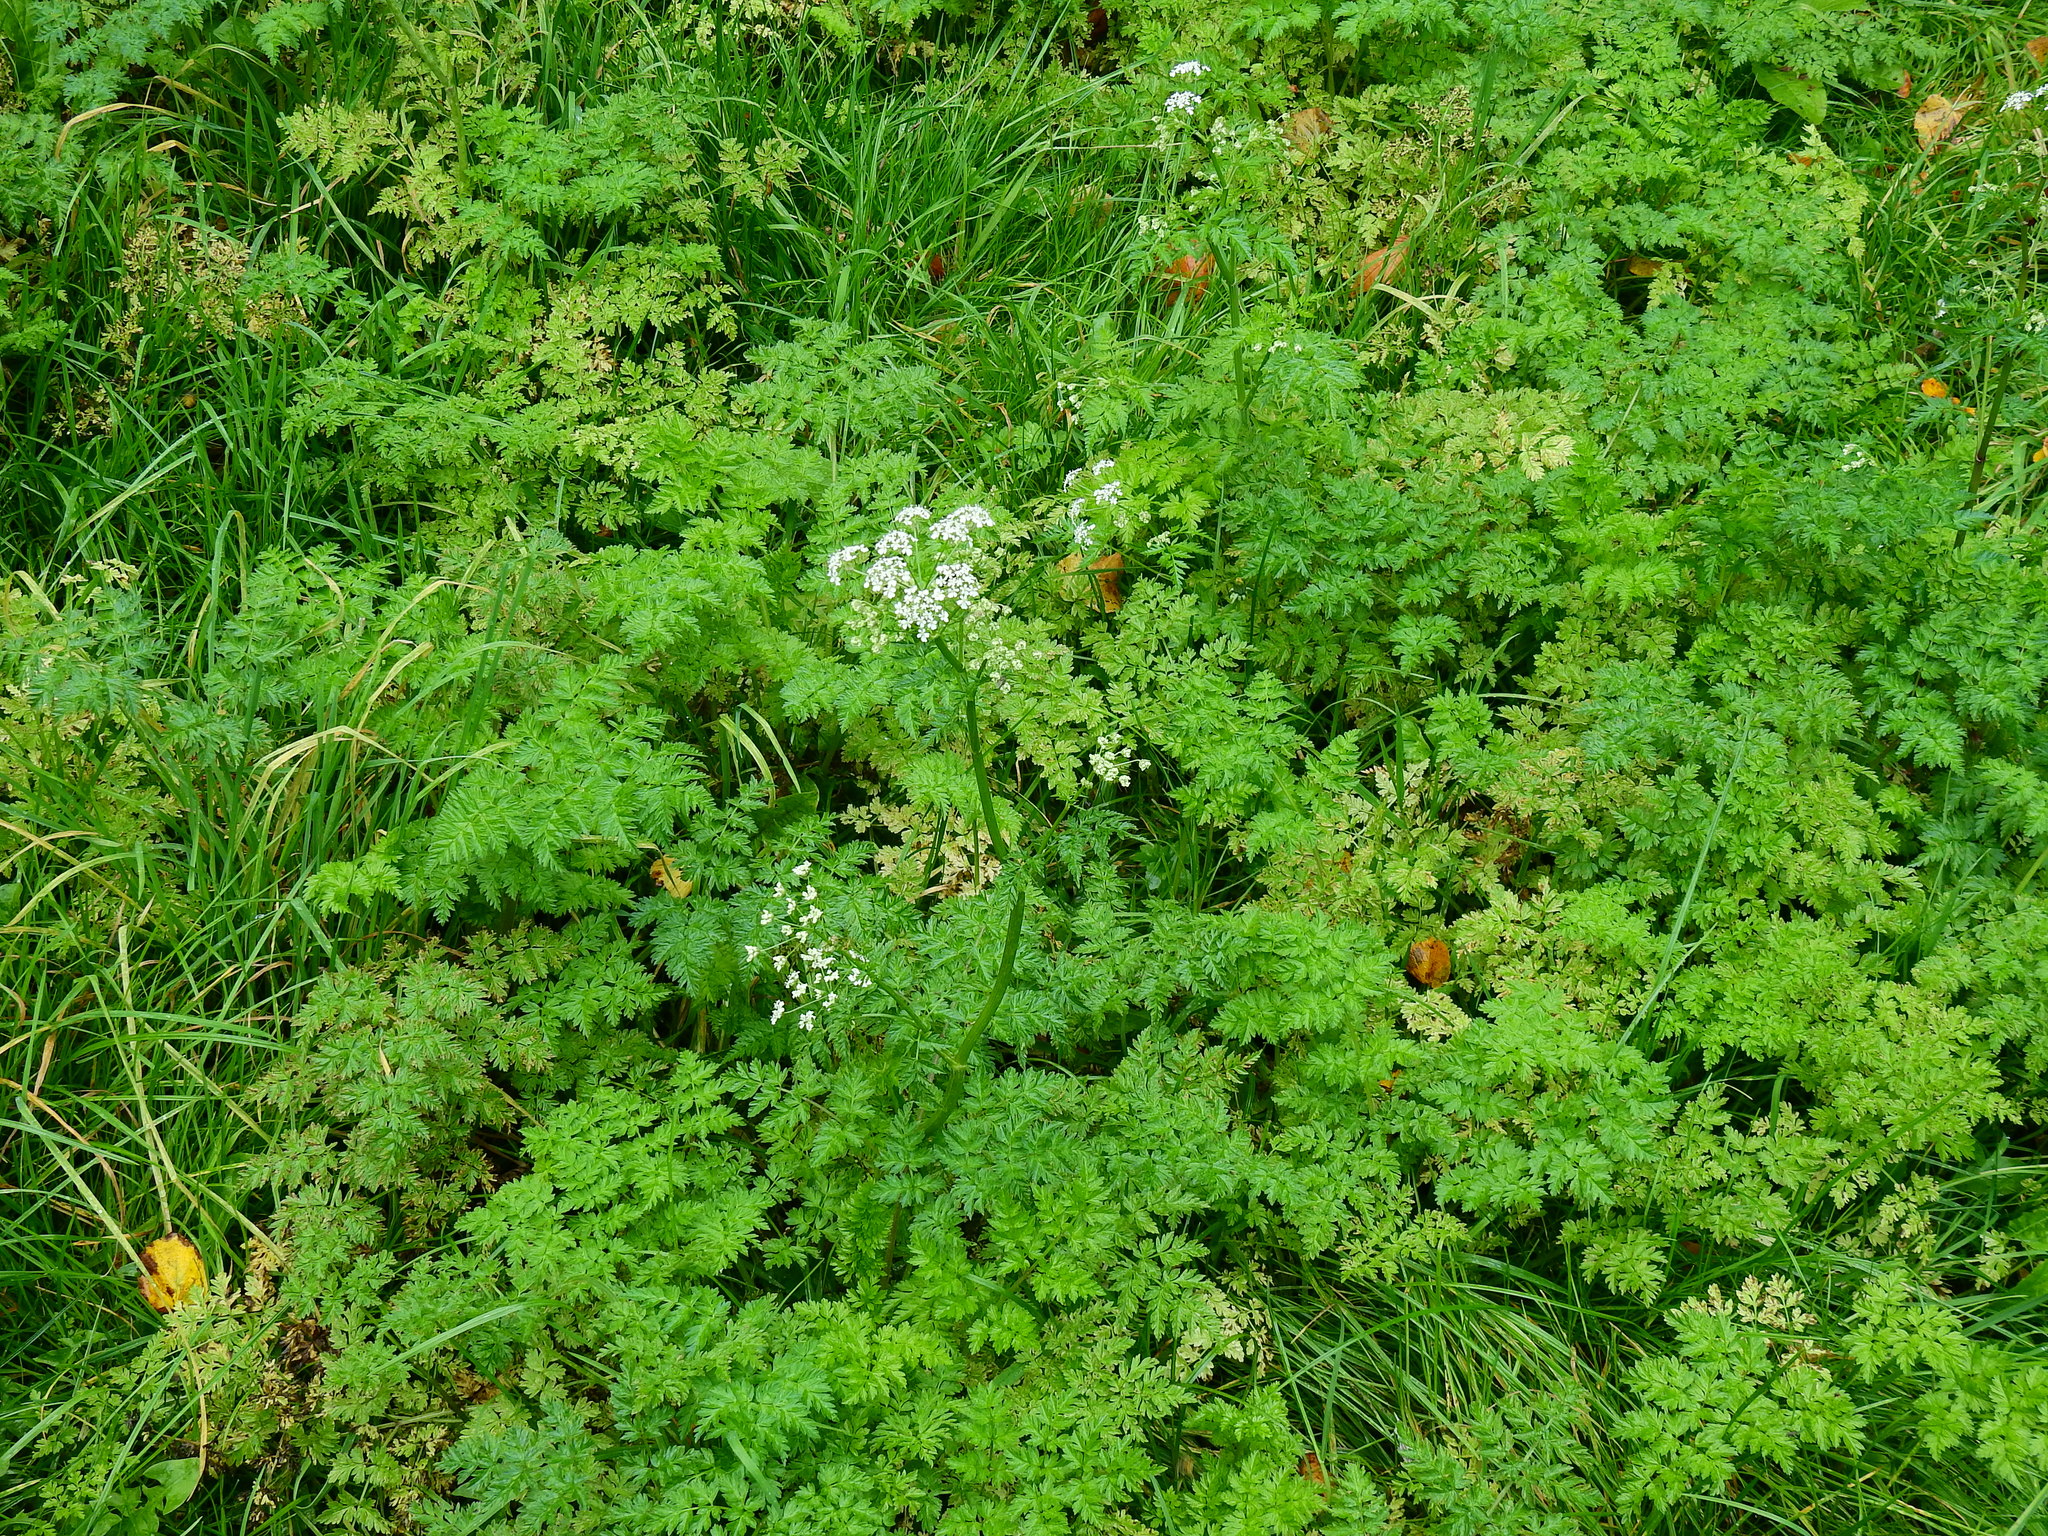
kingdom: Plantae
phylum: Tracheophyta
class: Magnoliopsida
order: Apiales
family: Apiaceae
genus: Anthriscus
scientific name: Anthriscus sylvestris
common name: Cow parsley
